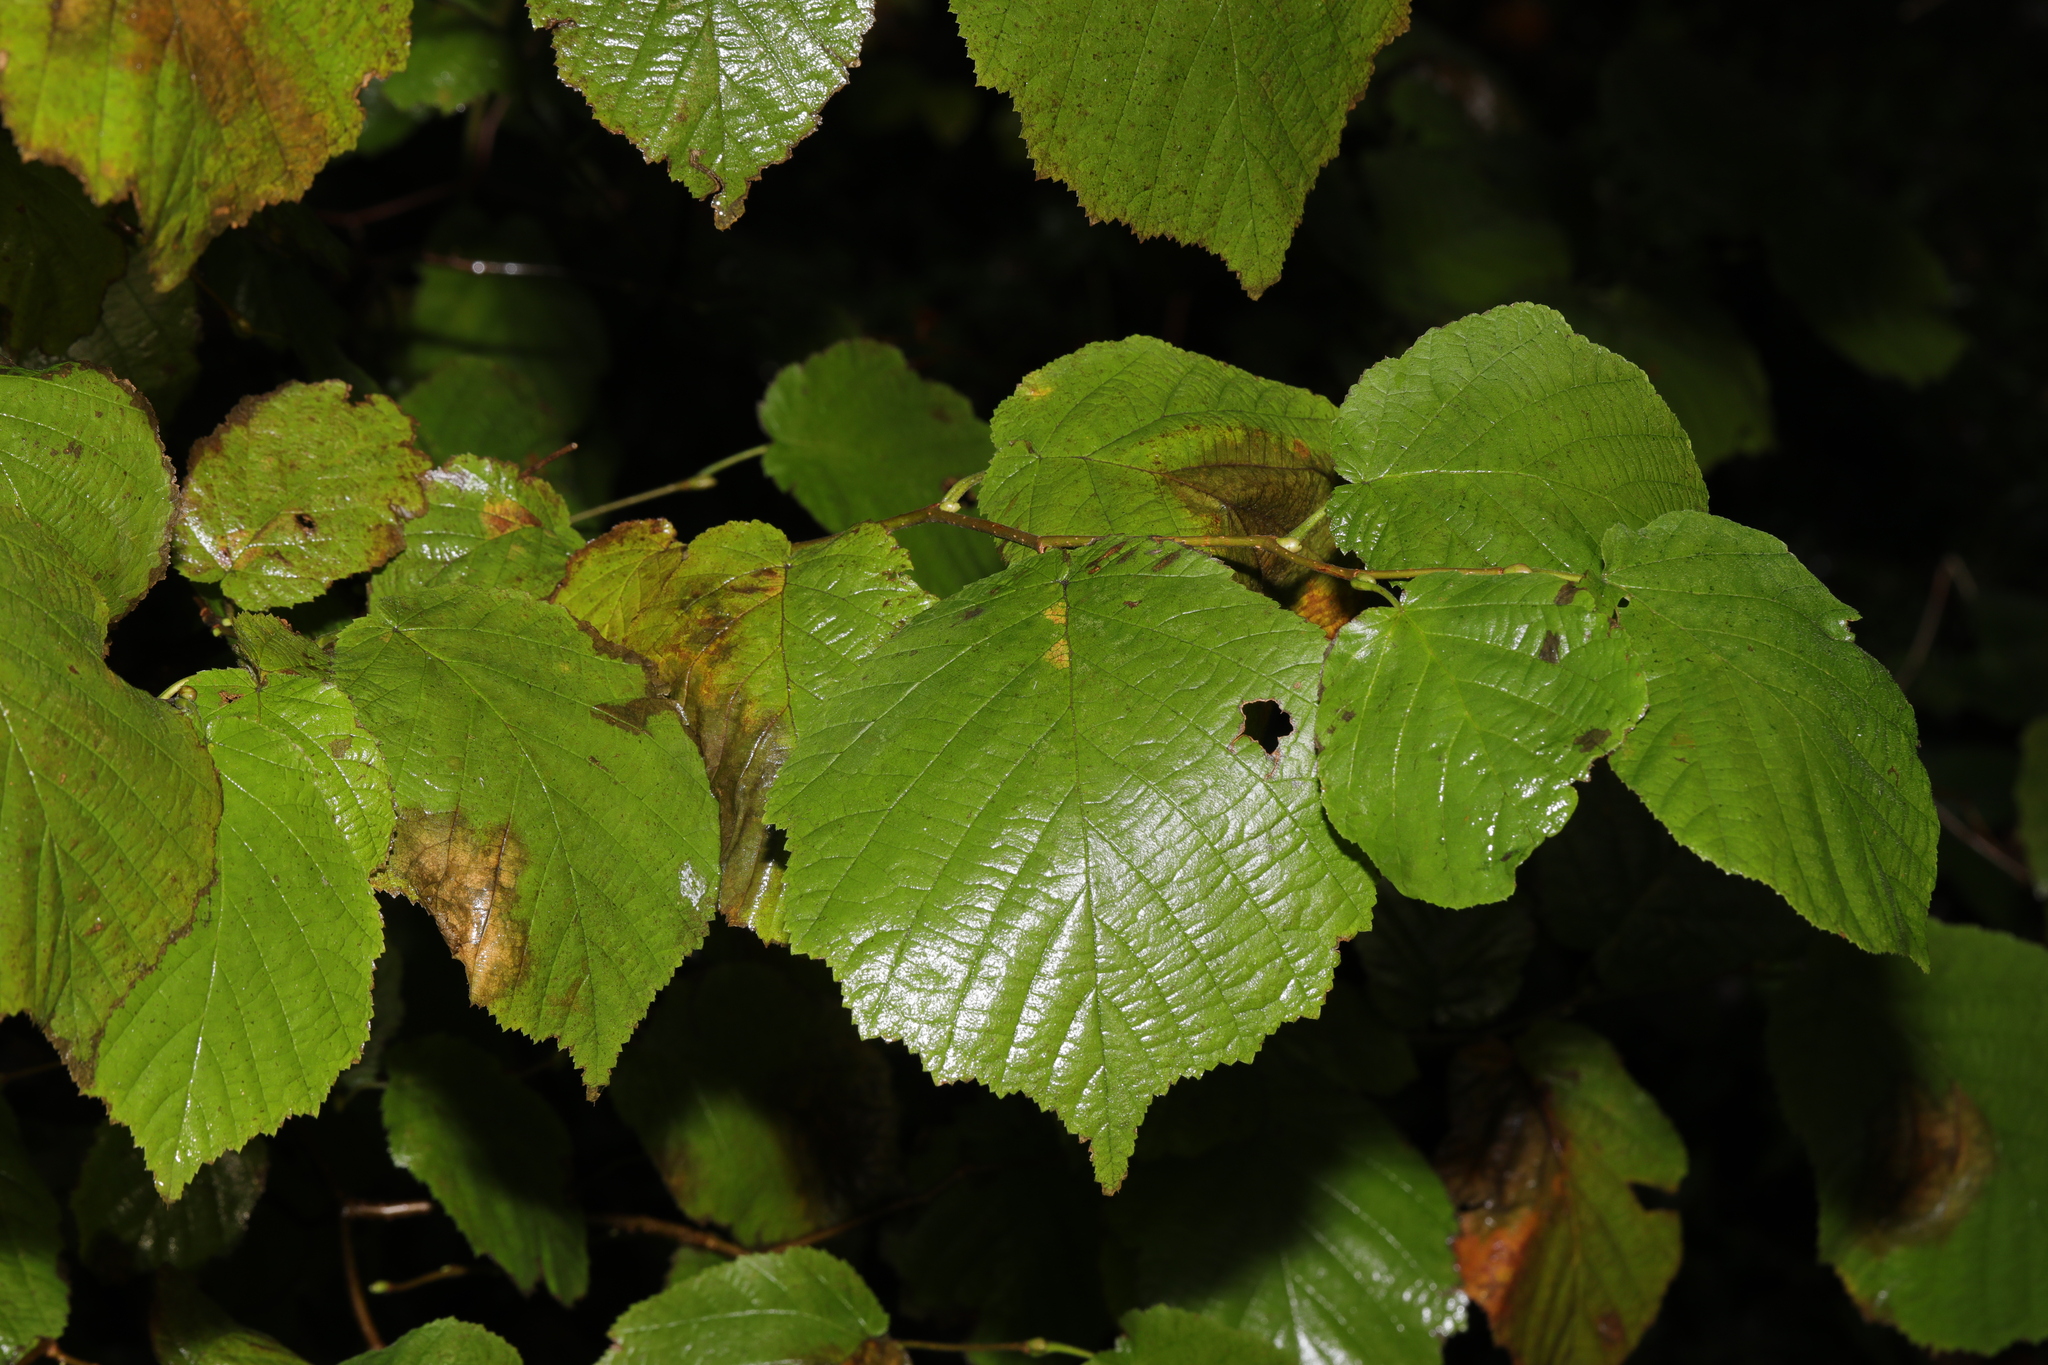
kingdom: Plantae
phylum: Tracheophyta
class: Magnoliopsida
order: Fagales
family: Betulaceae
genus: Corylus
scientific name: Corylus avellana
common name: European hazel
